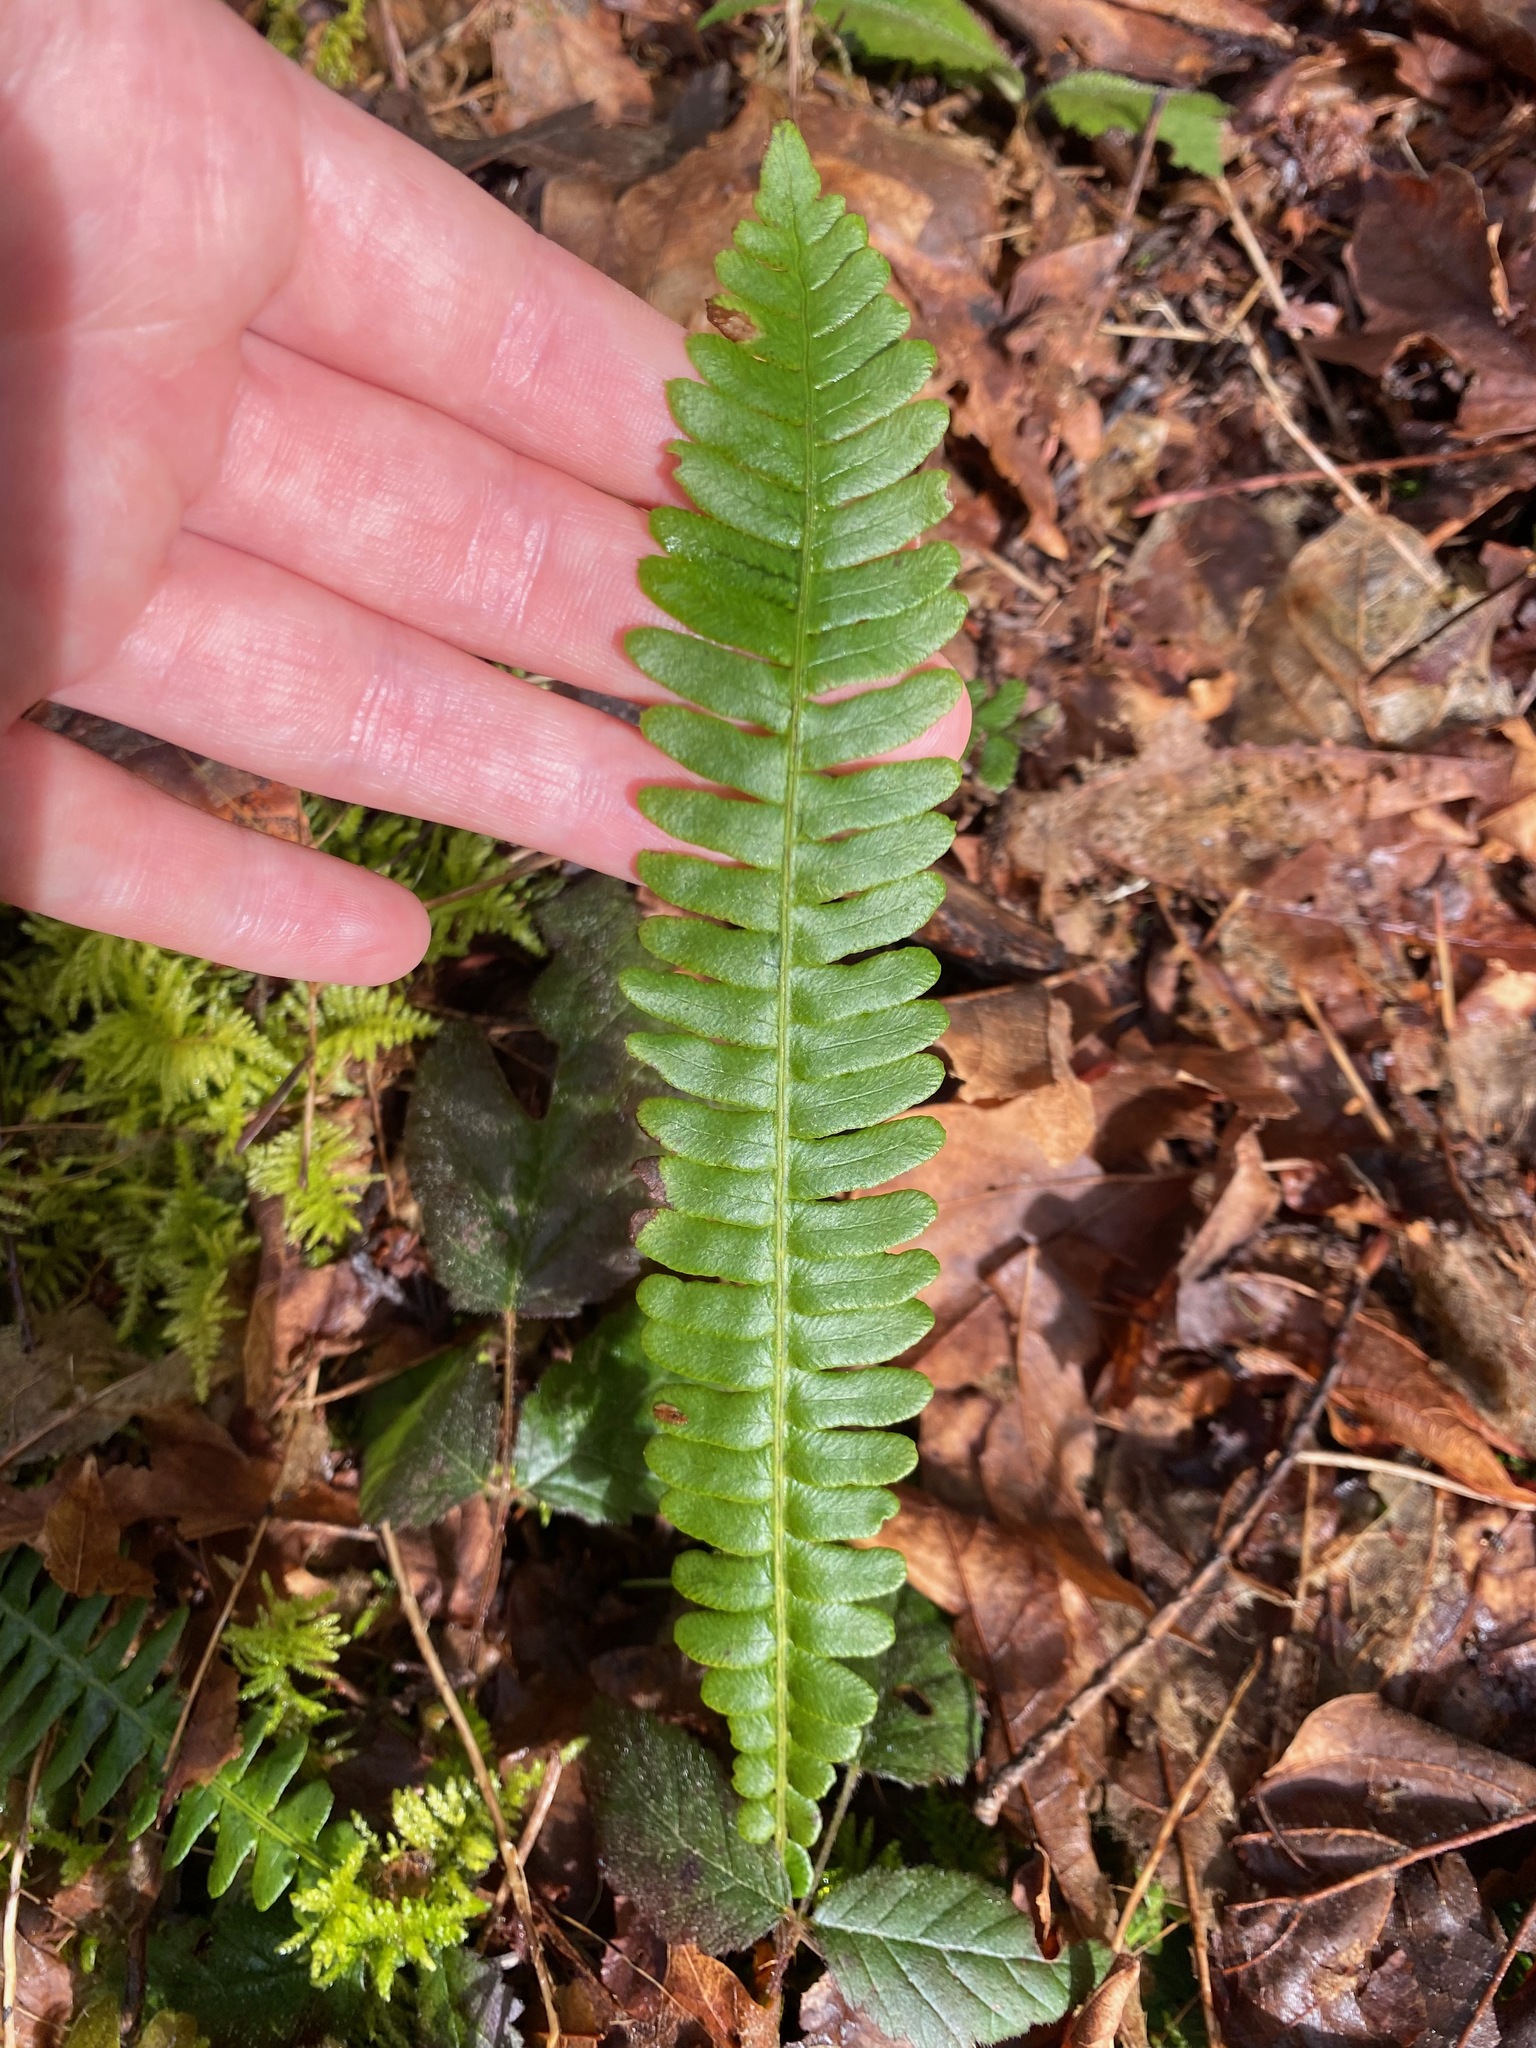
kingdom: Plantae
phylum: Tracheophyta
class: Polypodiopsida
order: Polypodiales
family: Blechnaceae
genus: Struthiopteris
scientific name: Struthiopteris spicant
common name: Deer fern
